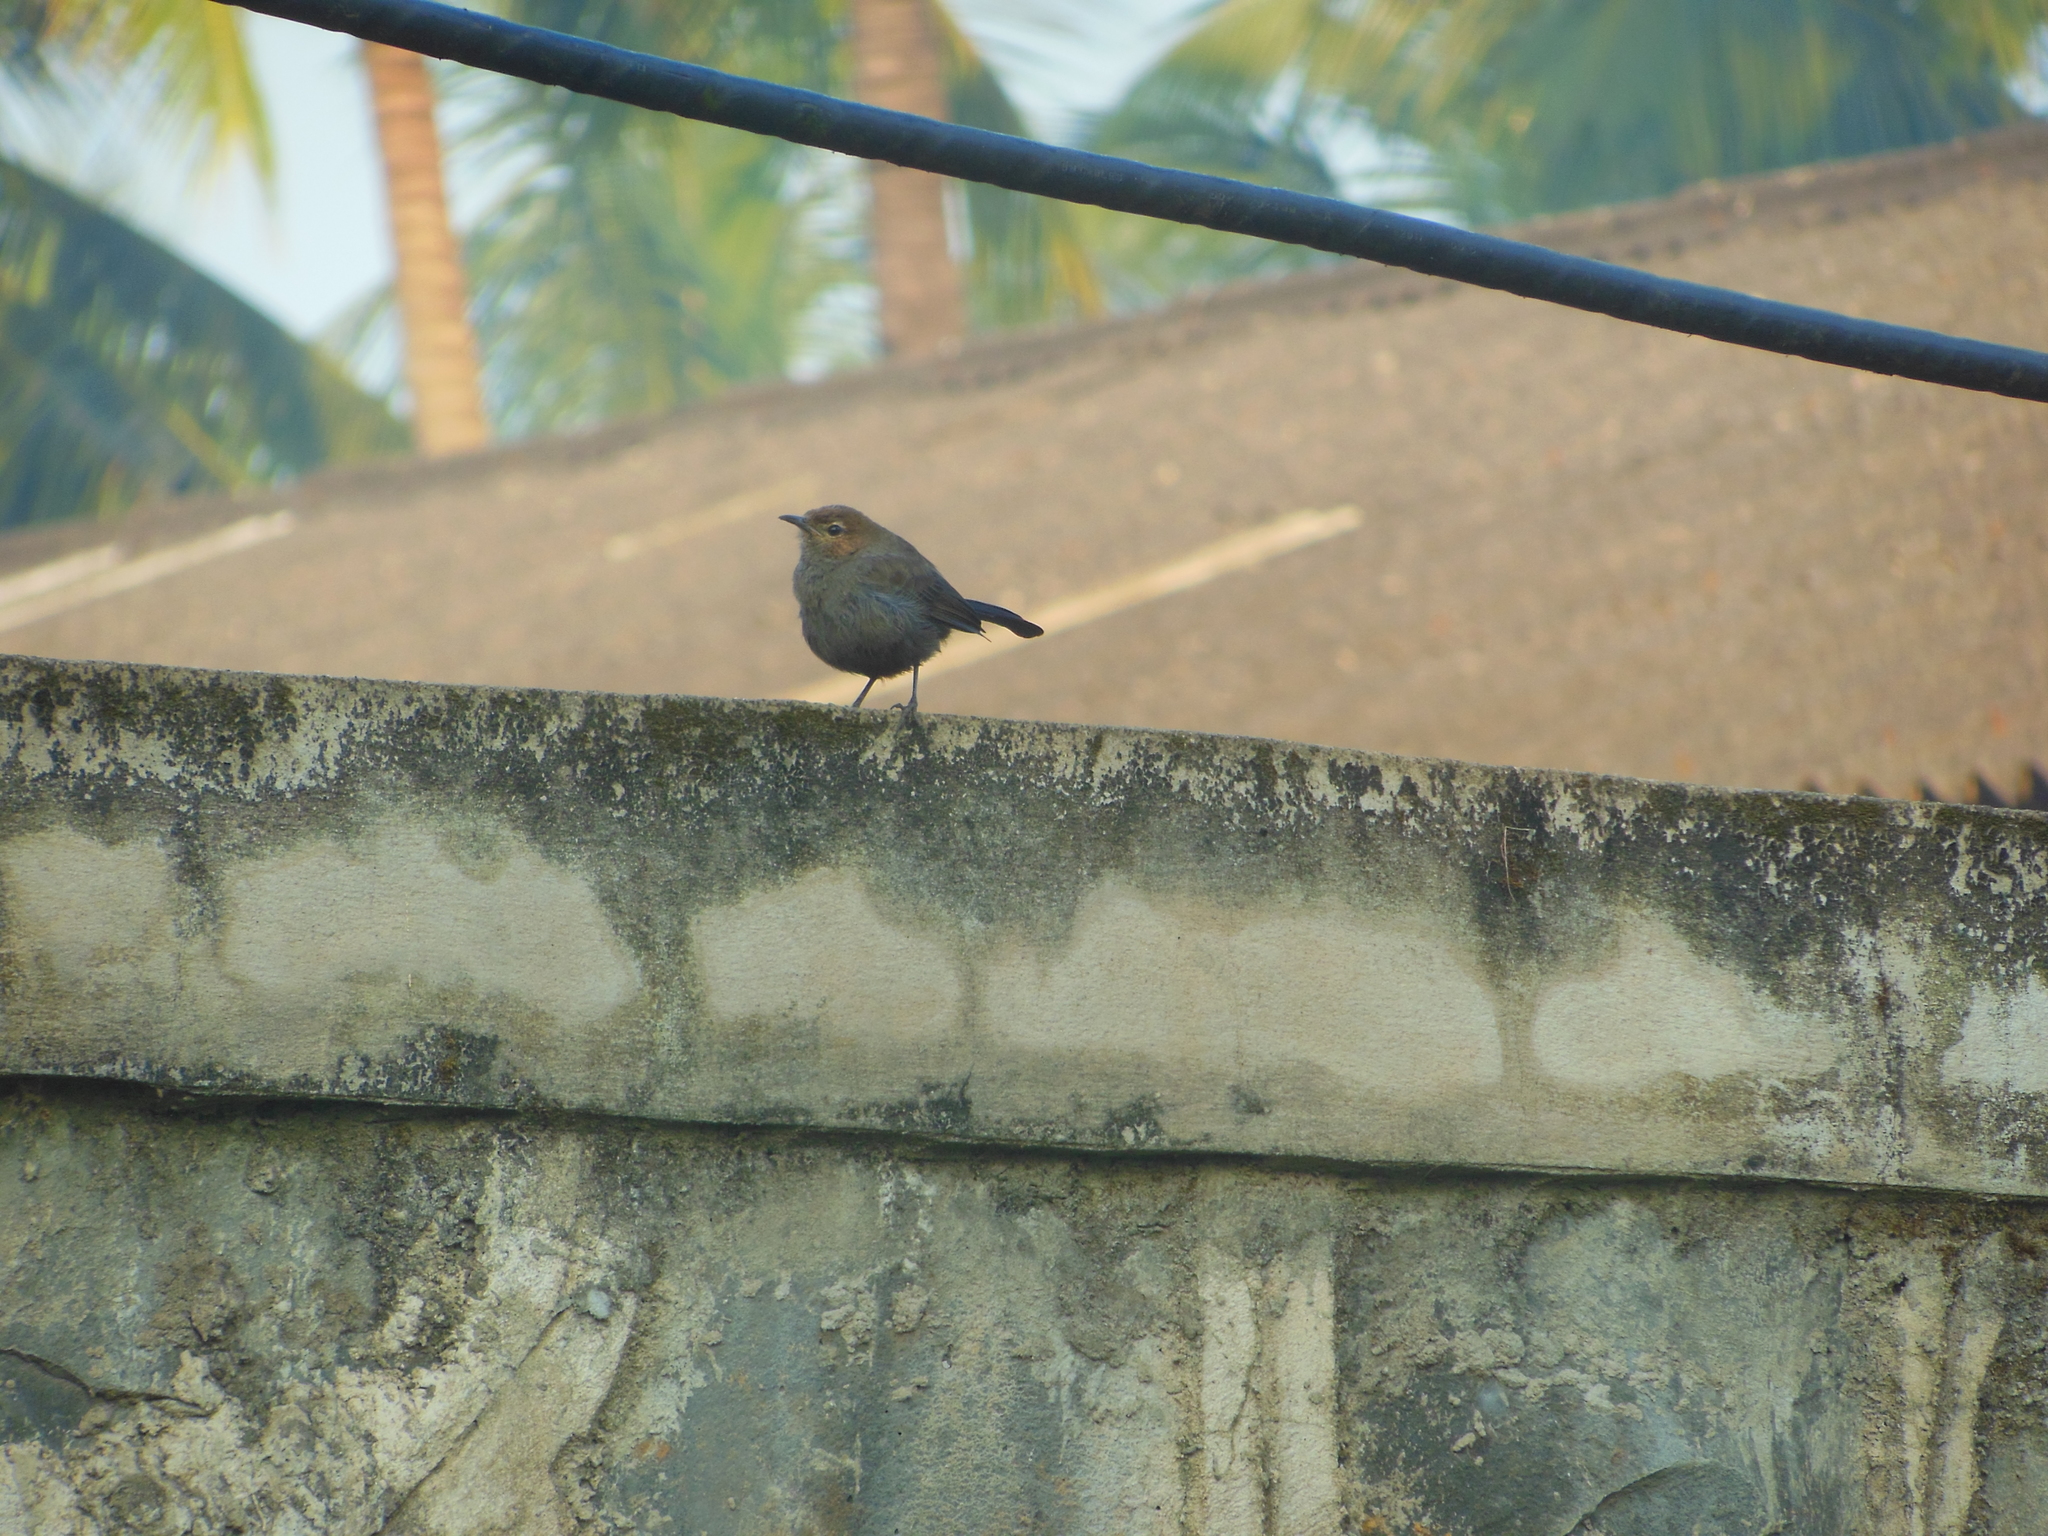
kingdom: Animalia
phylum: Chordata
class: Aves
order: Passeriformes
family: Muscicapidae
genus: Saxicoloides
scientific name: Saxicoloides fulicatus
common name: Indian robin
